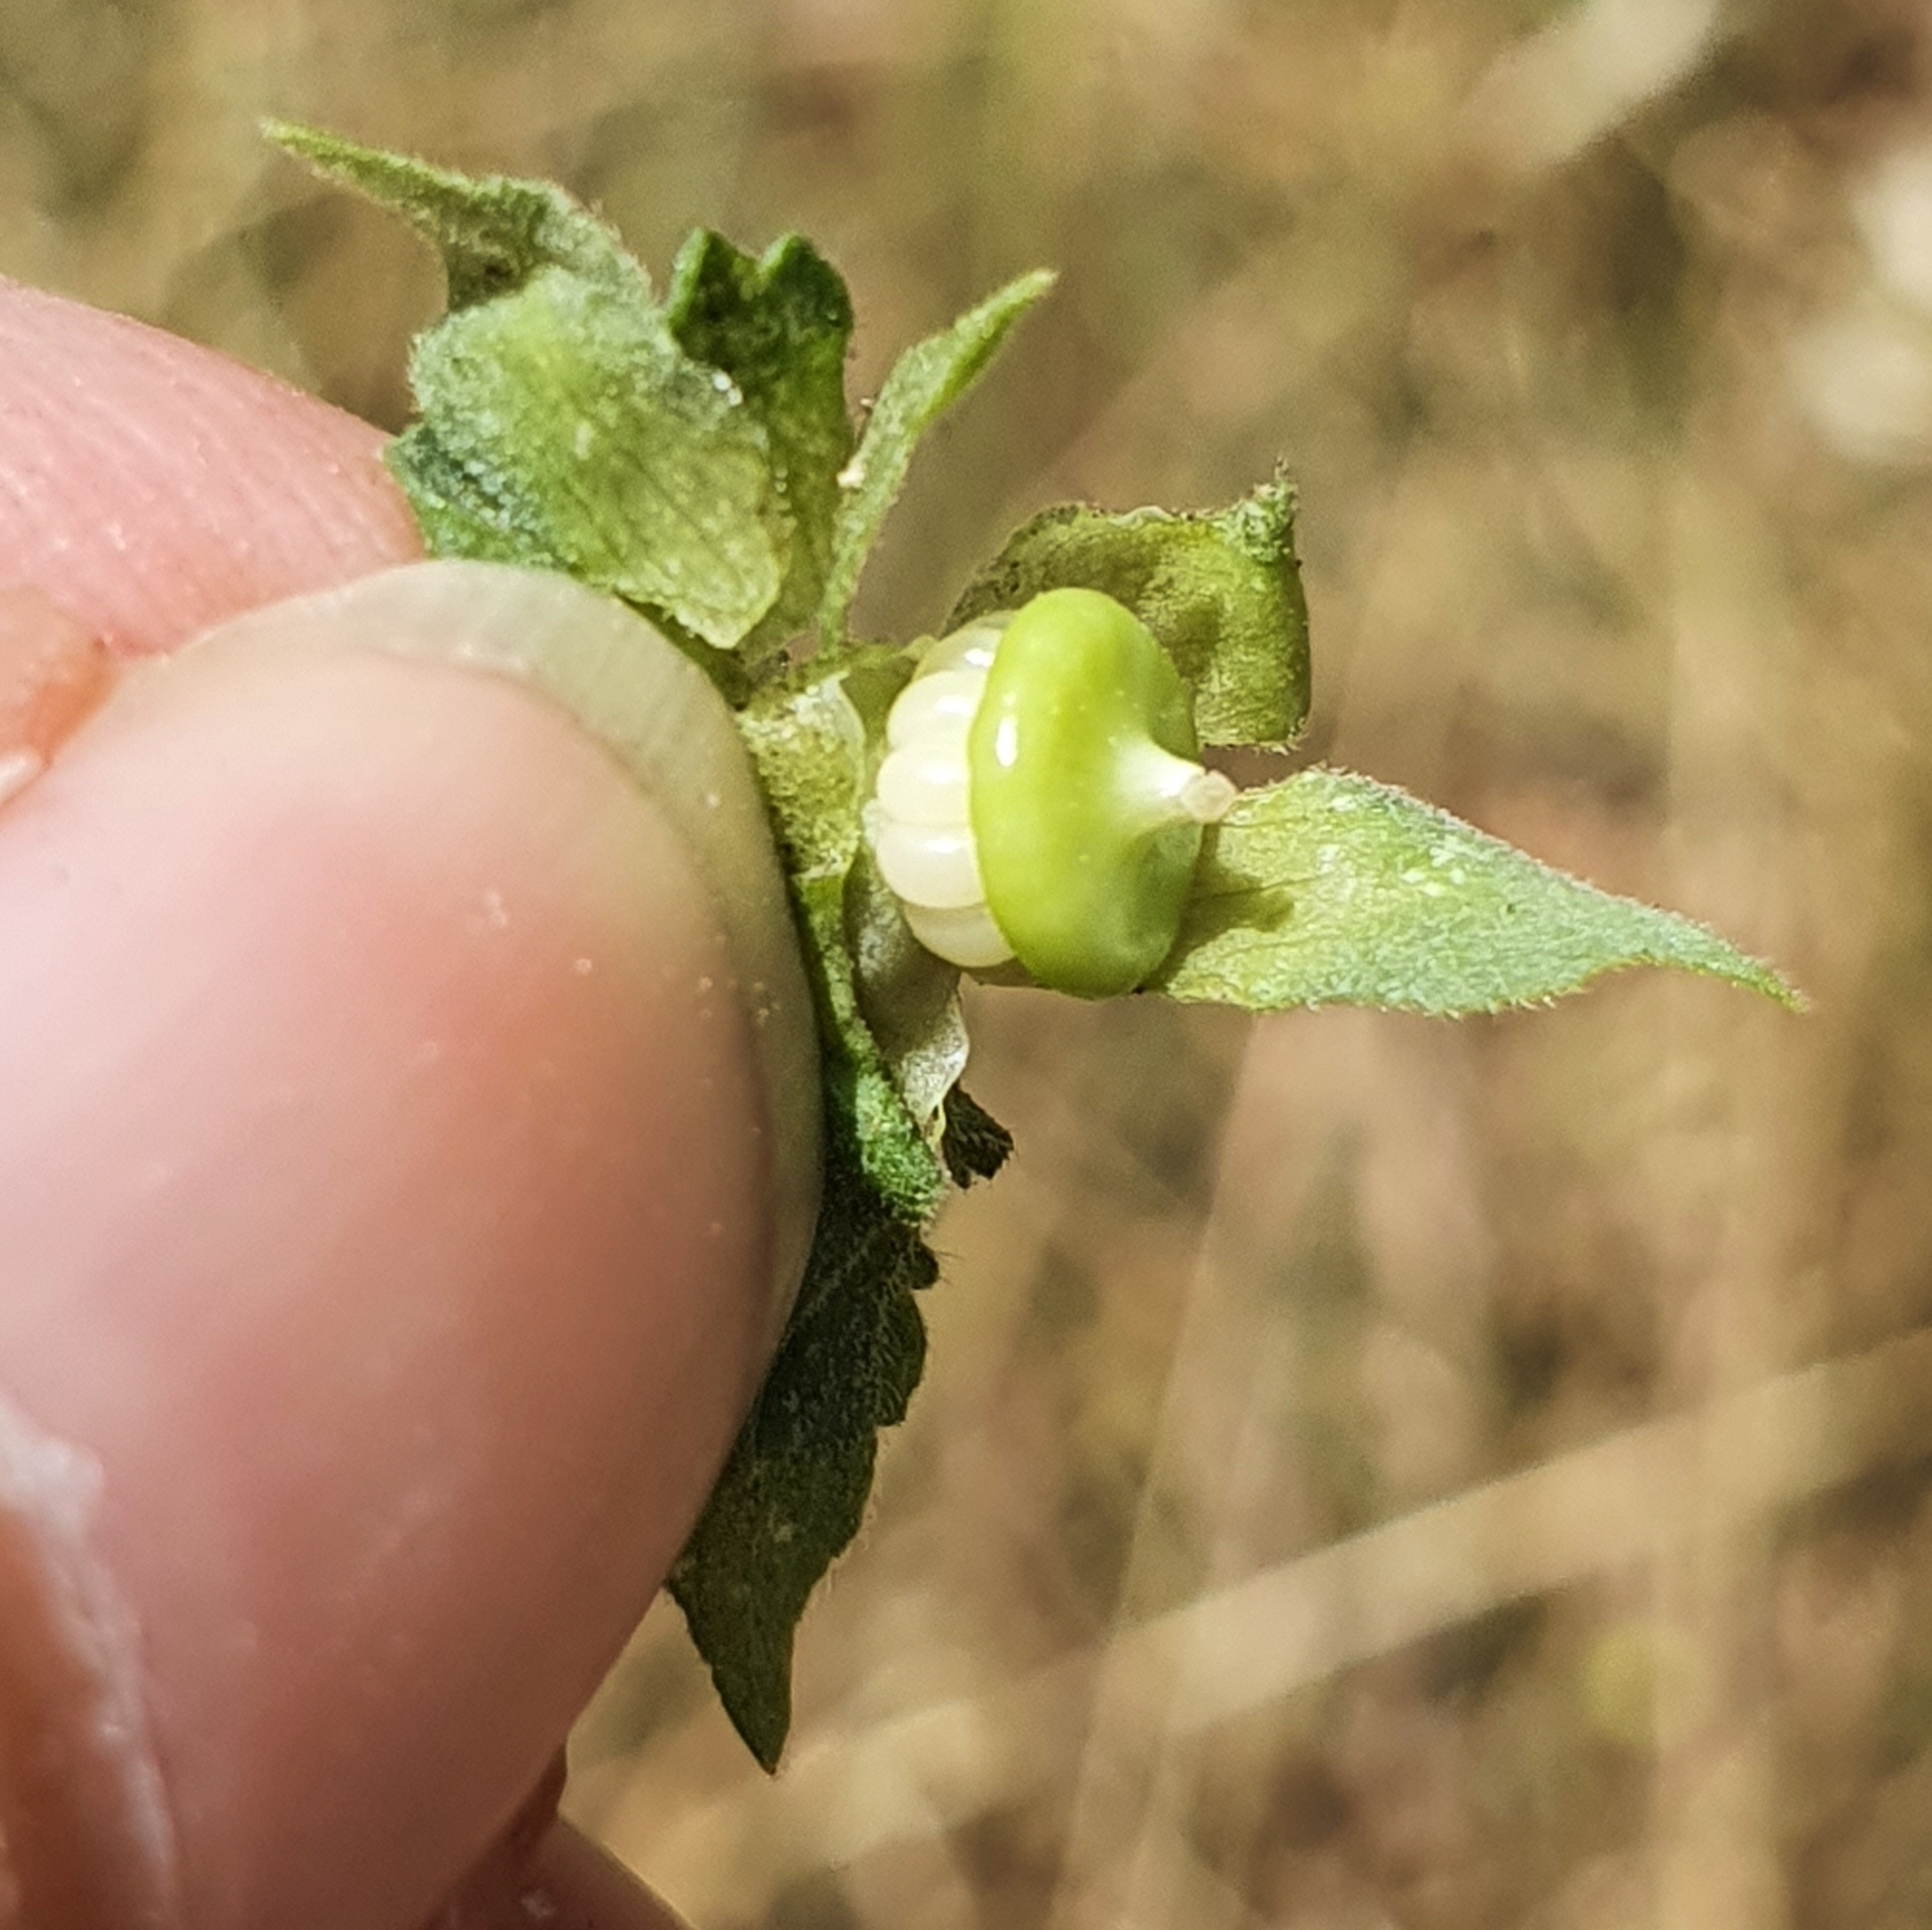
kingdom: Plantae
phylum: Tracheophyta
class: Magnoliopsida
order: Malvales
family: Malvaceae
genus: Malva
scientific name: Malva trimestris
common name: Royal mallow
